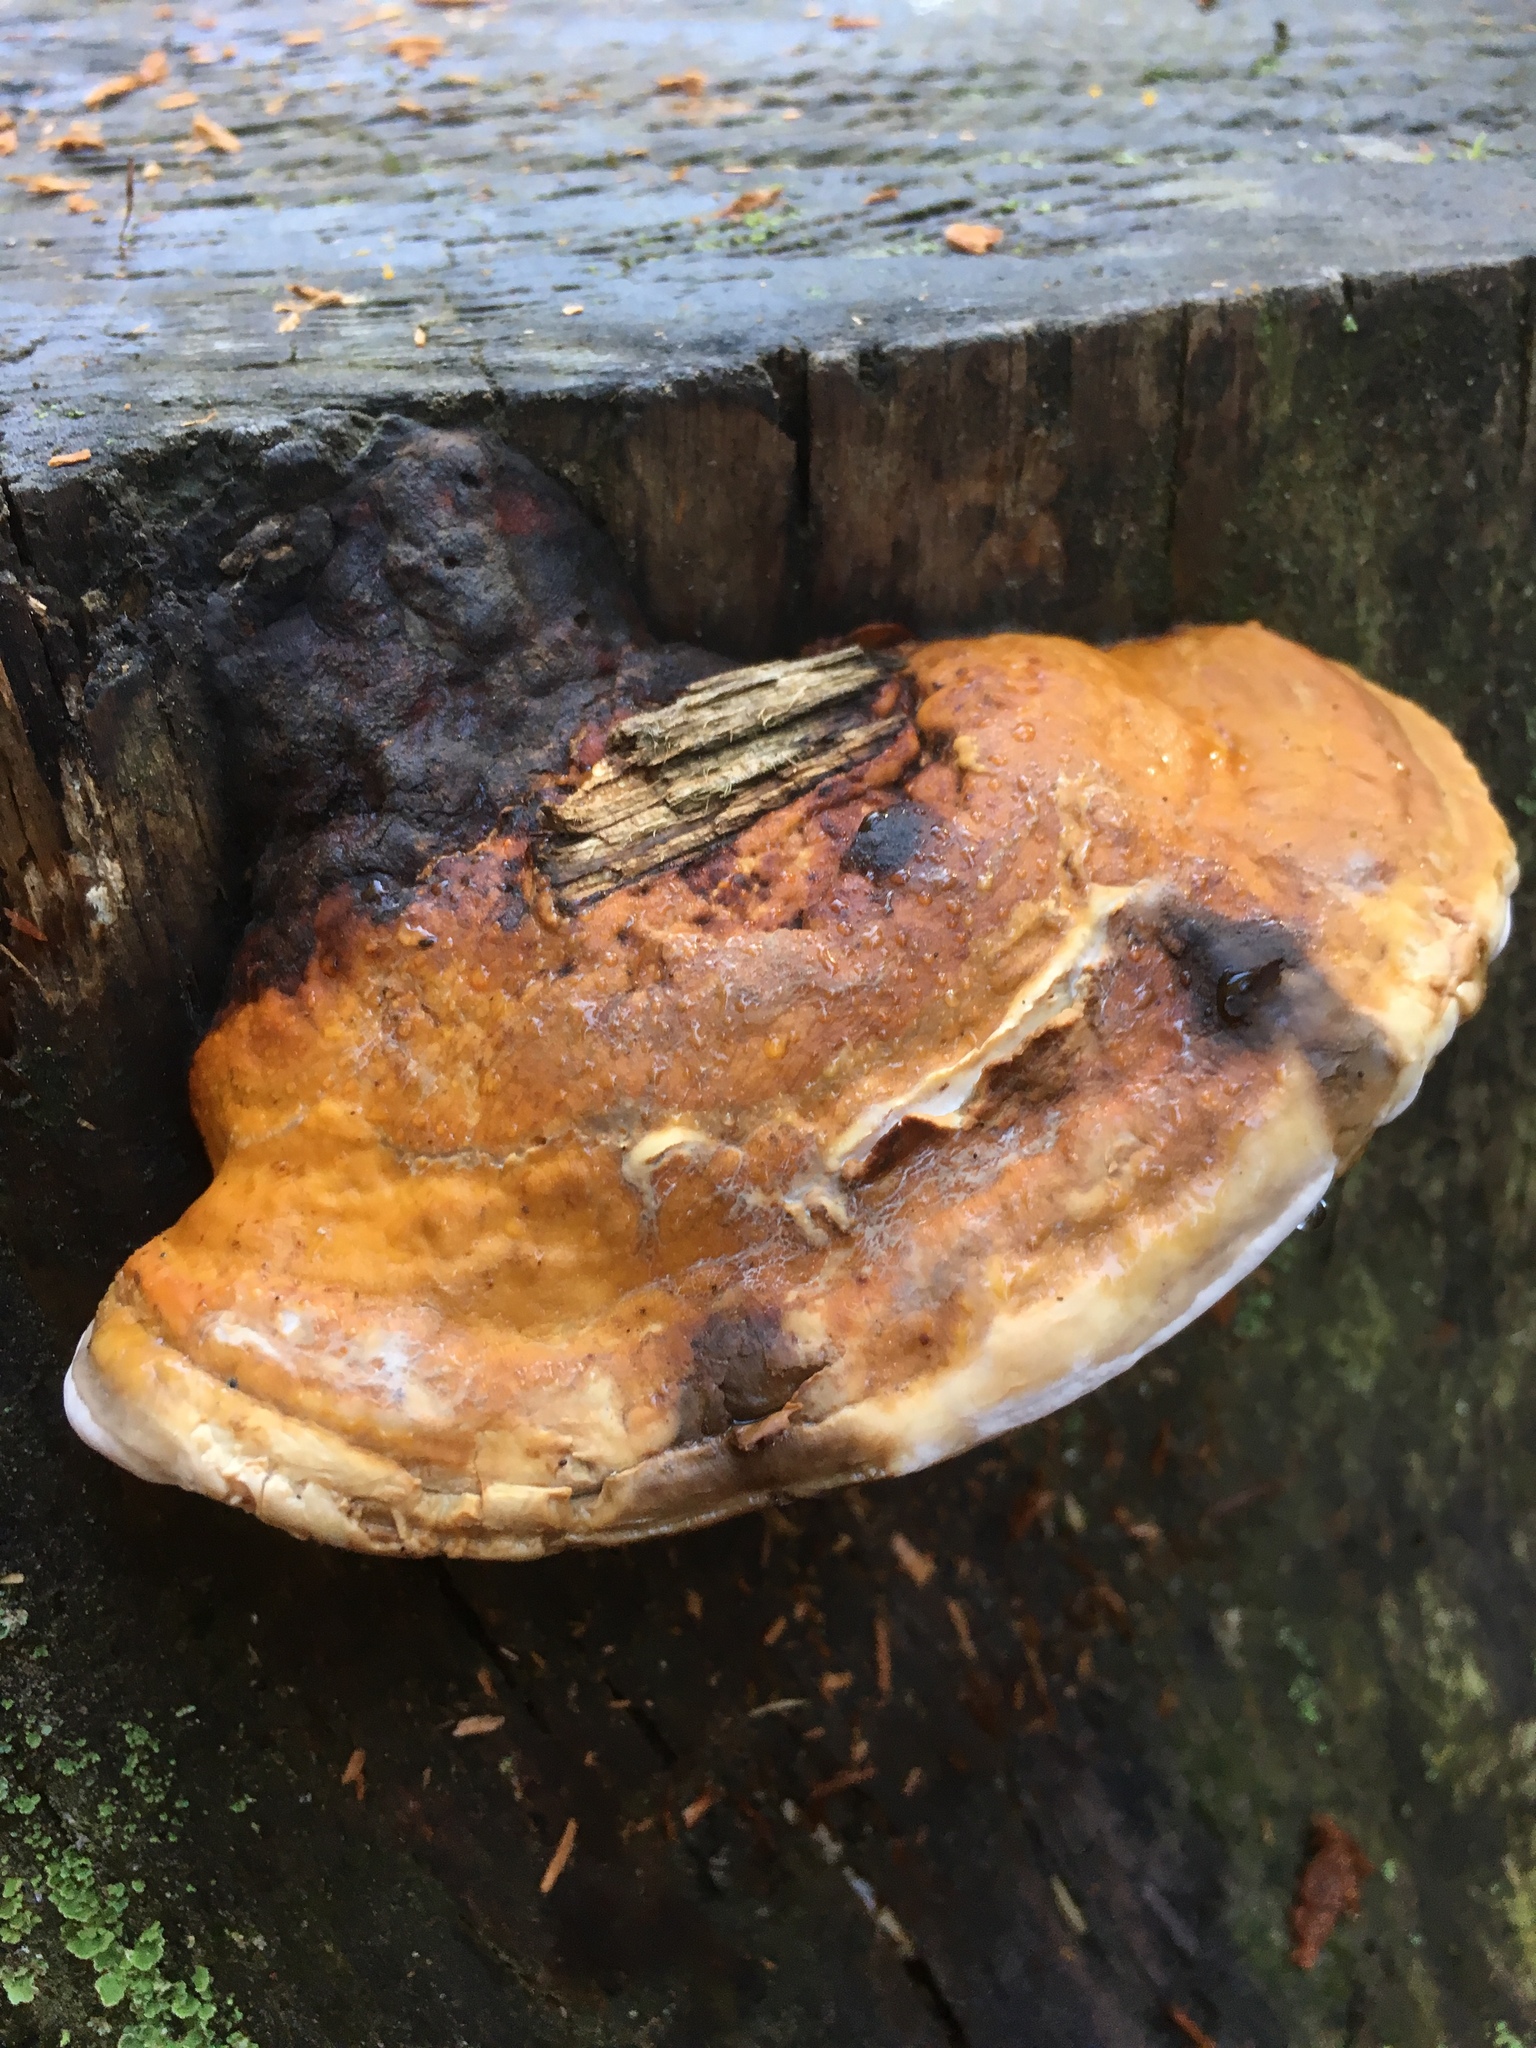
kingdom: Fungi
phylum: Basidiomycota
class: Agaricomycetes
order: Polyporales
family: Fomitopsidaceae
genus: Fomitopsis
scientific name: Fomitopsis pinicola
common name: Red-belted bracket
